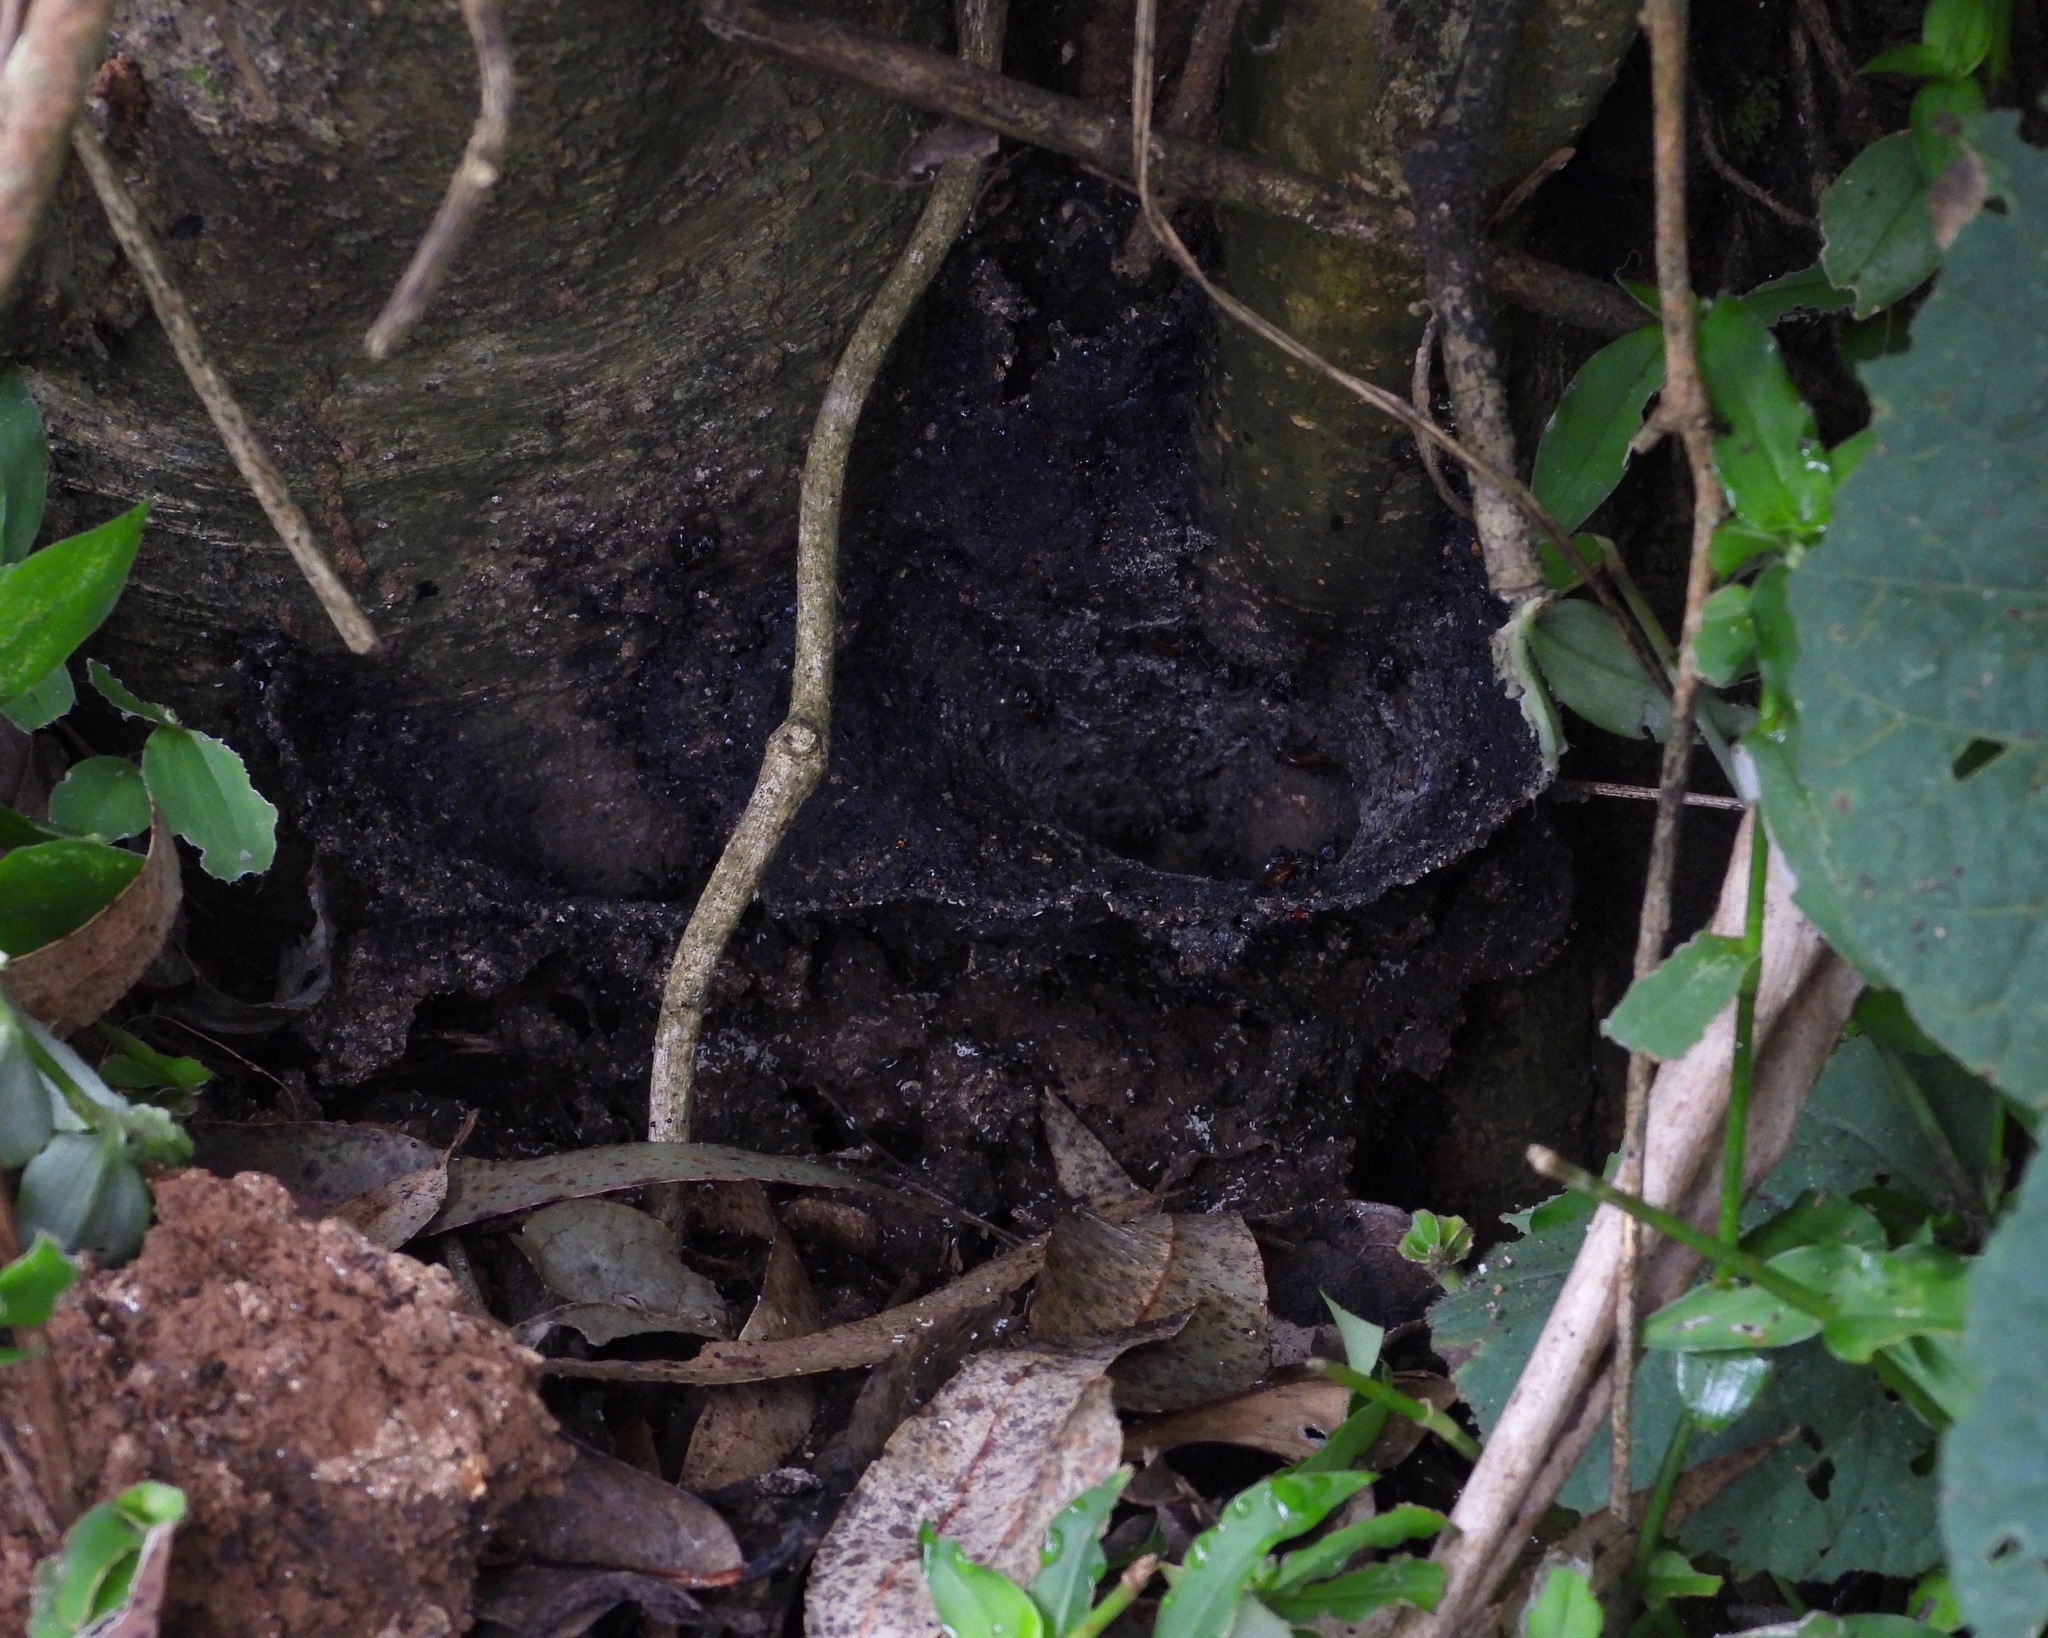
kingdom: Animalia
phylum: Arthropoda
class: Insecta
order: Hymenoptera
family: Apidae
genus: Trigona
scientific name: Trigona fulviventris
